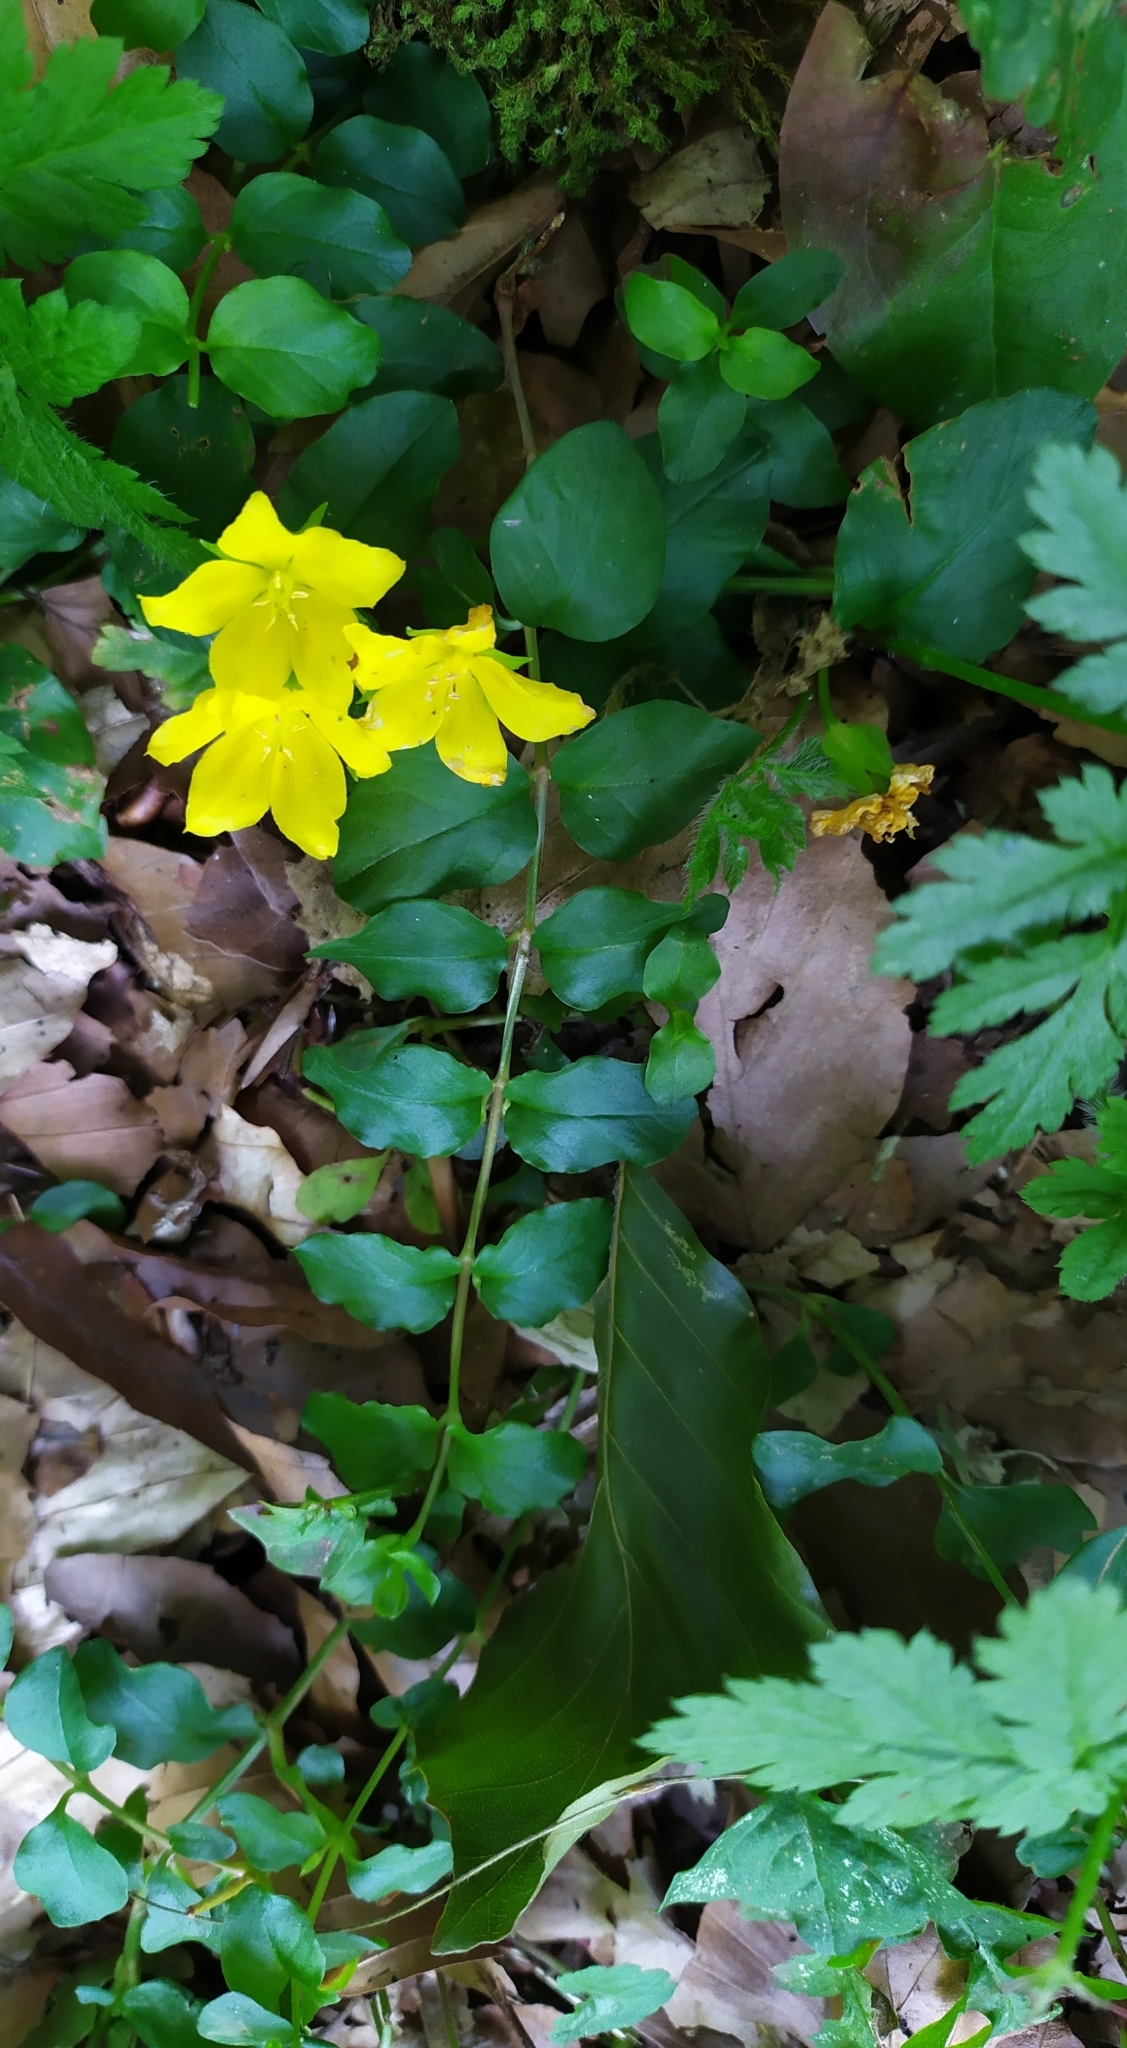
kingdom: Plantae
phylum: Tracheophyta
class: Magnoliopsida
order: Ericales
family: Primulaceae
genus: Lysimachia
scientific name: Lysimachia nummularia
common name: Moneywort
